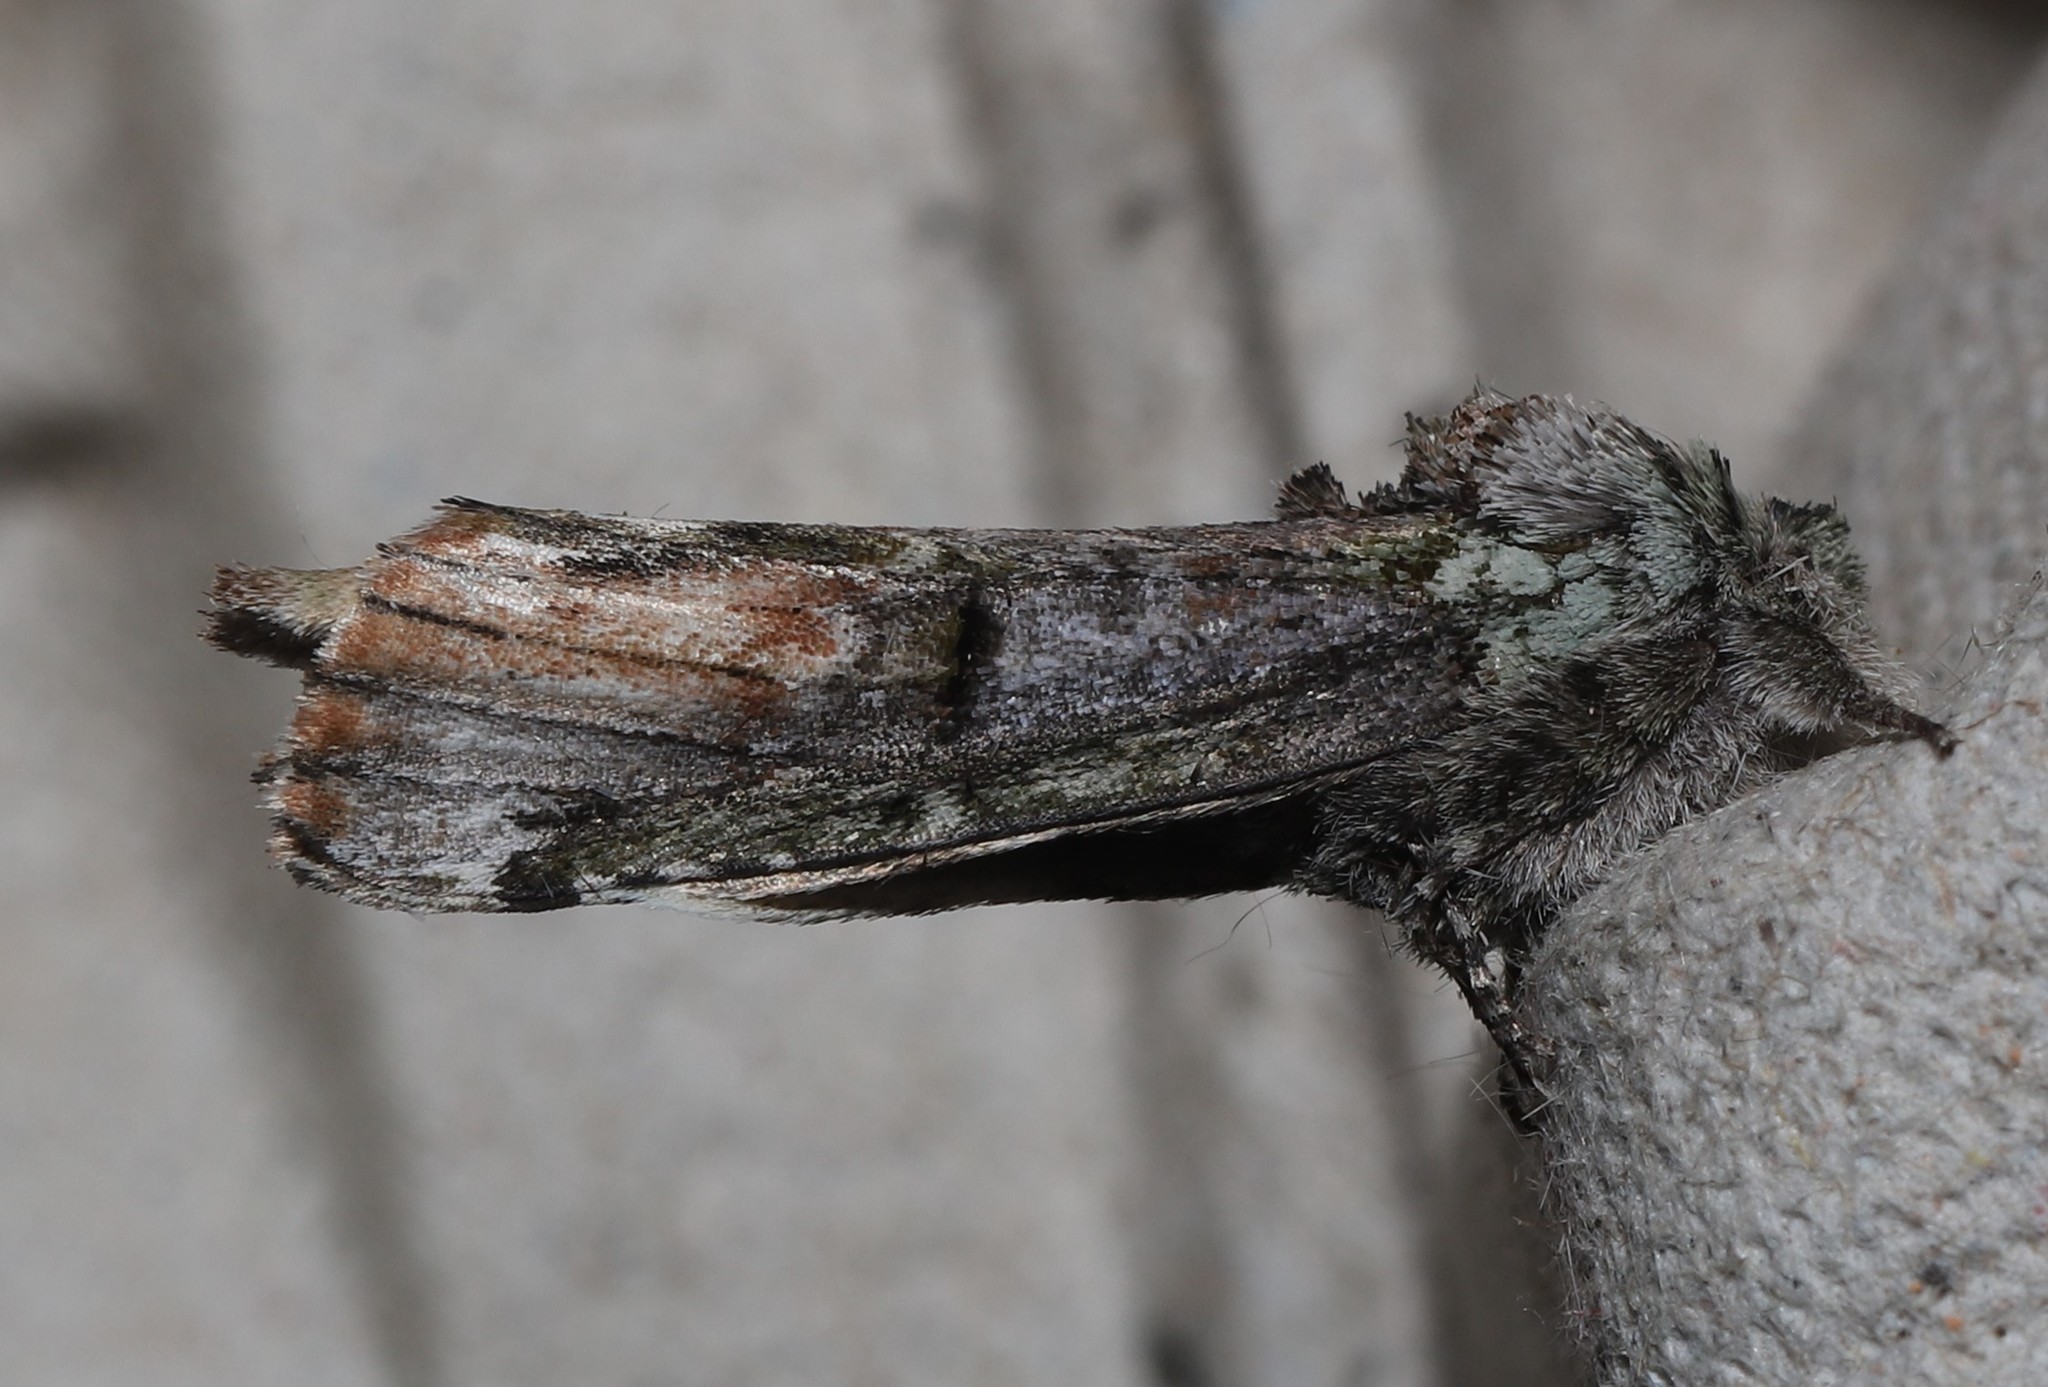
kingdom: Animalia
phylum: Arthropoda
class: Insecta
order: Lepidoptera
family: Notodontidae
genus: Schizura
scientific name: Schizura
